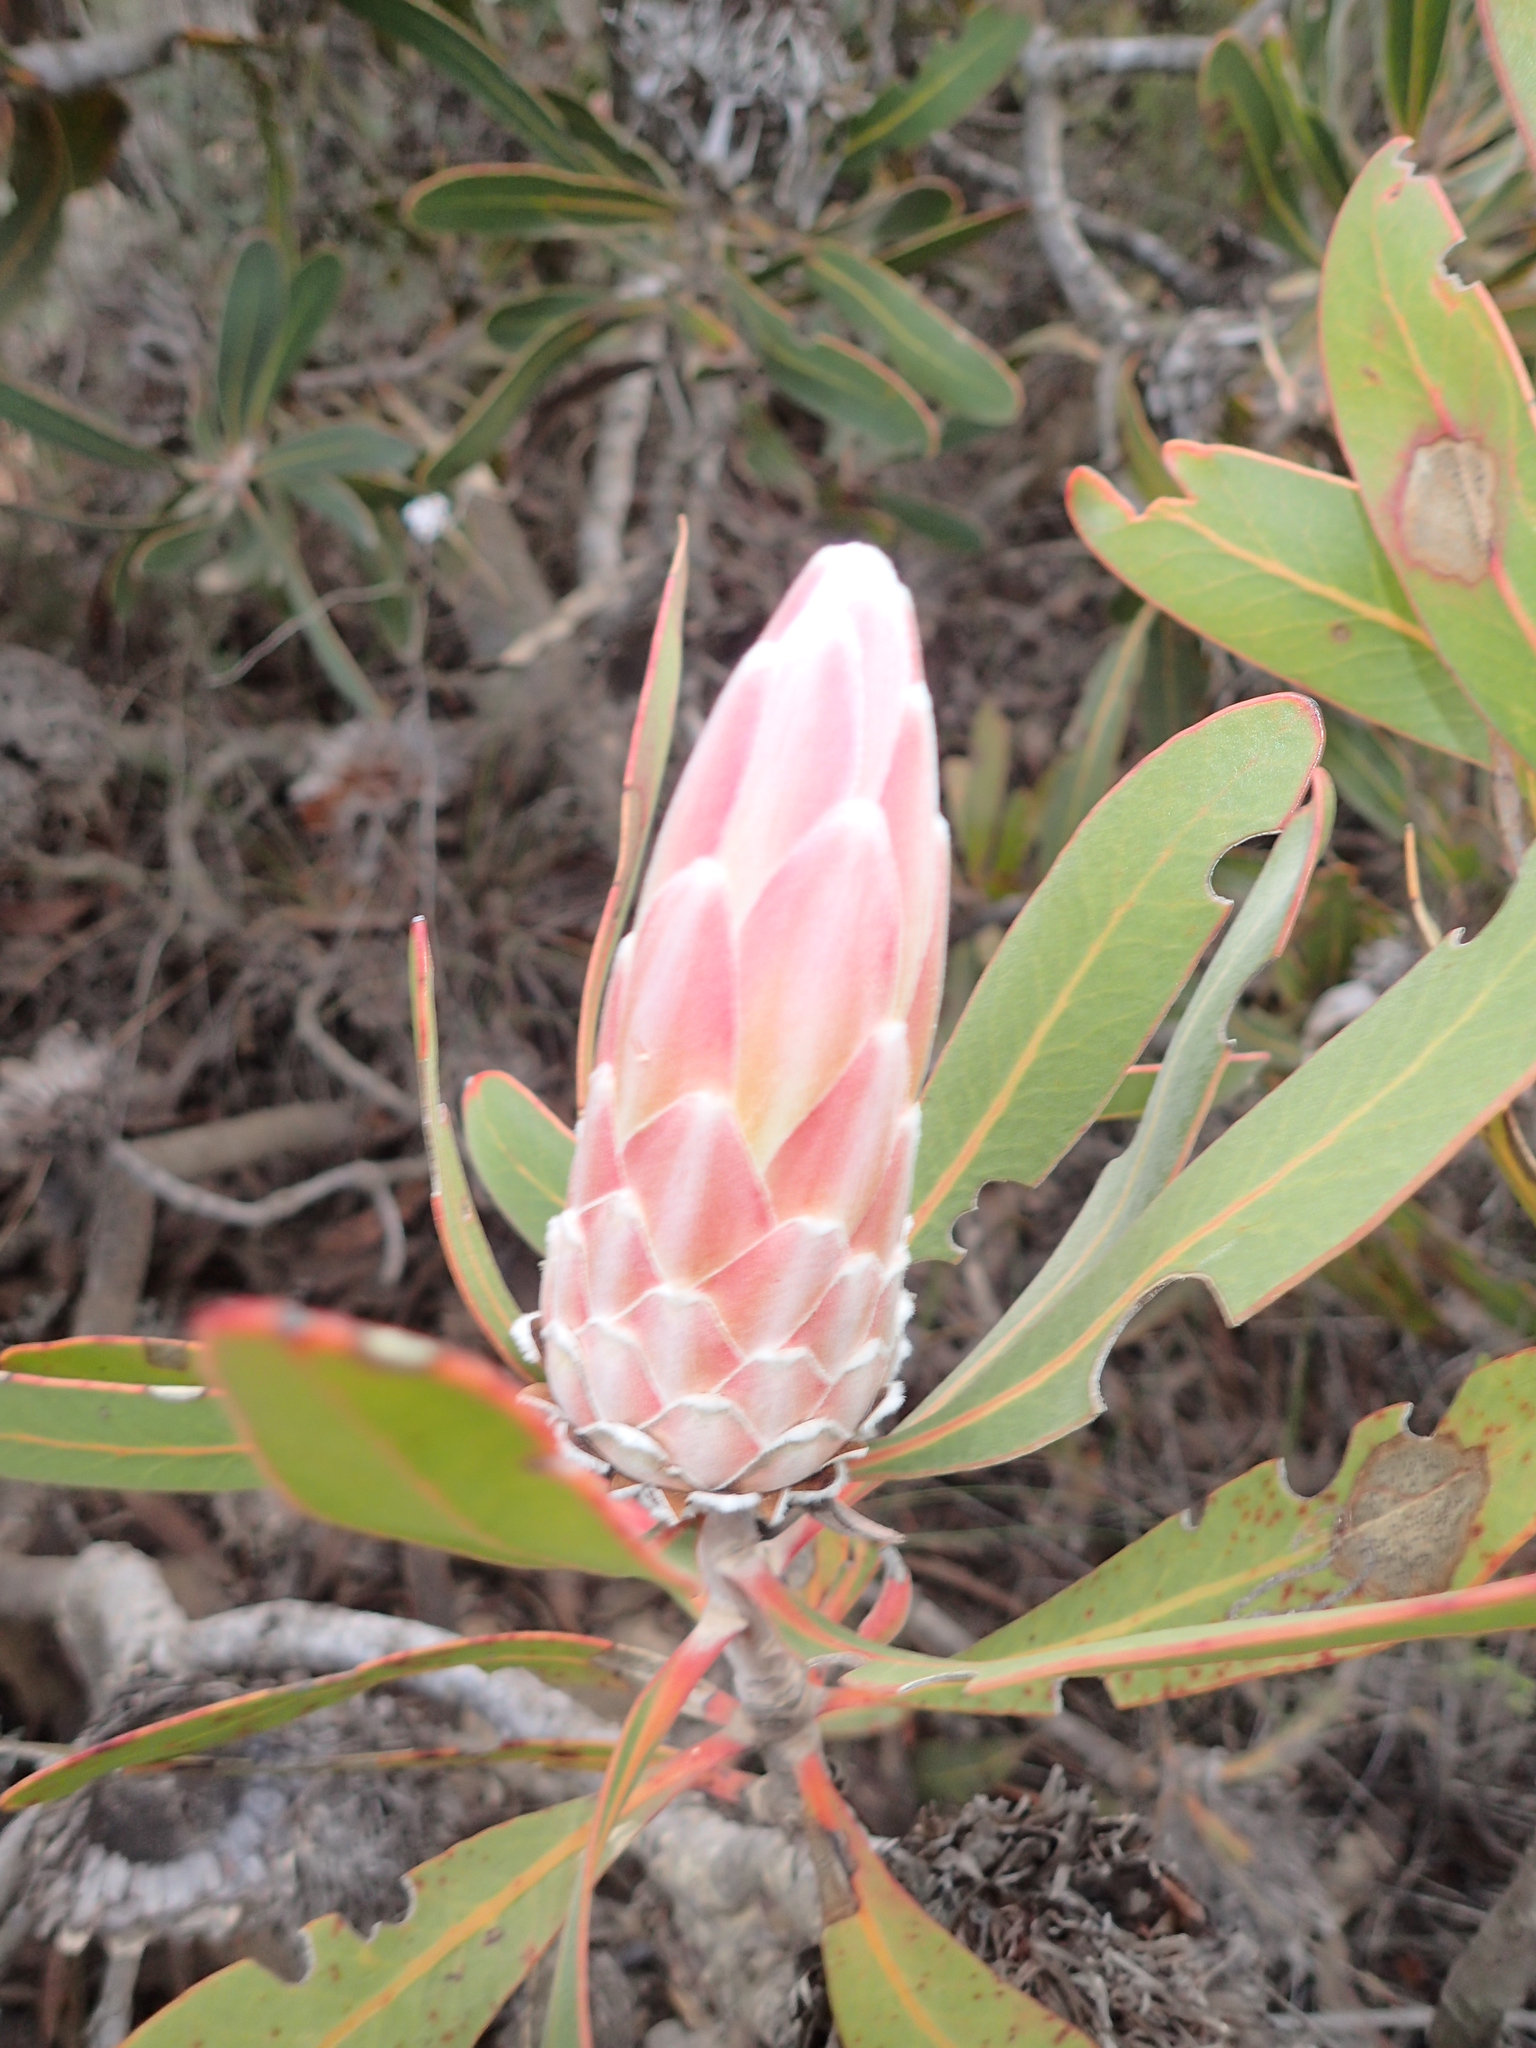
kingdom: Plantae
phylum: Tracheophyta
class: Magnoliopsida
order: Proteales
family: Proteaceae
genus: Protea
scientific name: Protea lorifolia
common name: Strap-leaved protea
